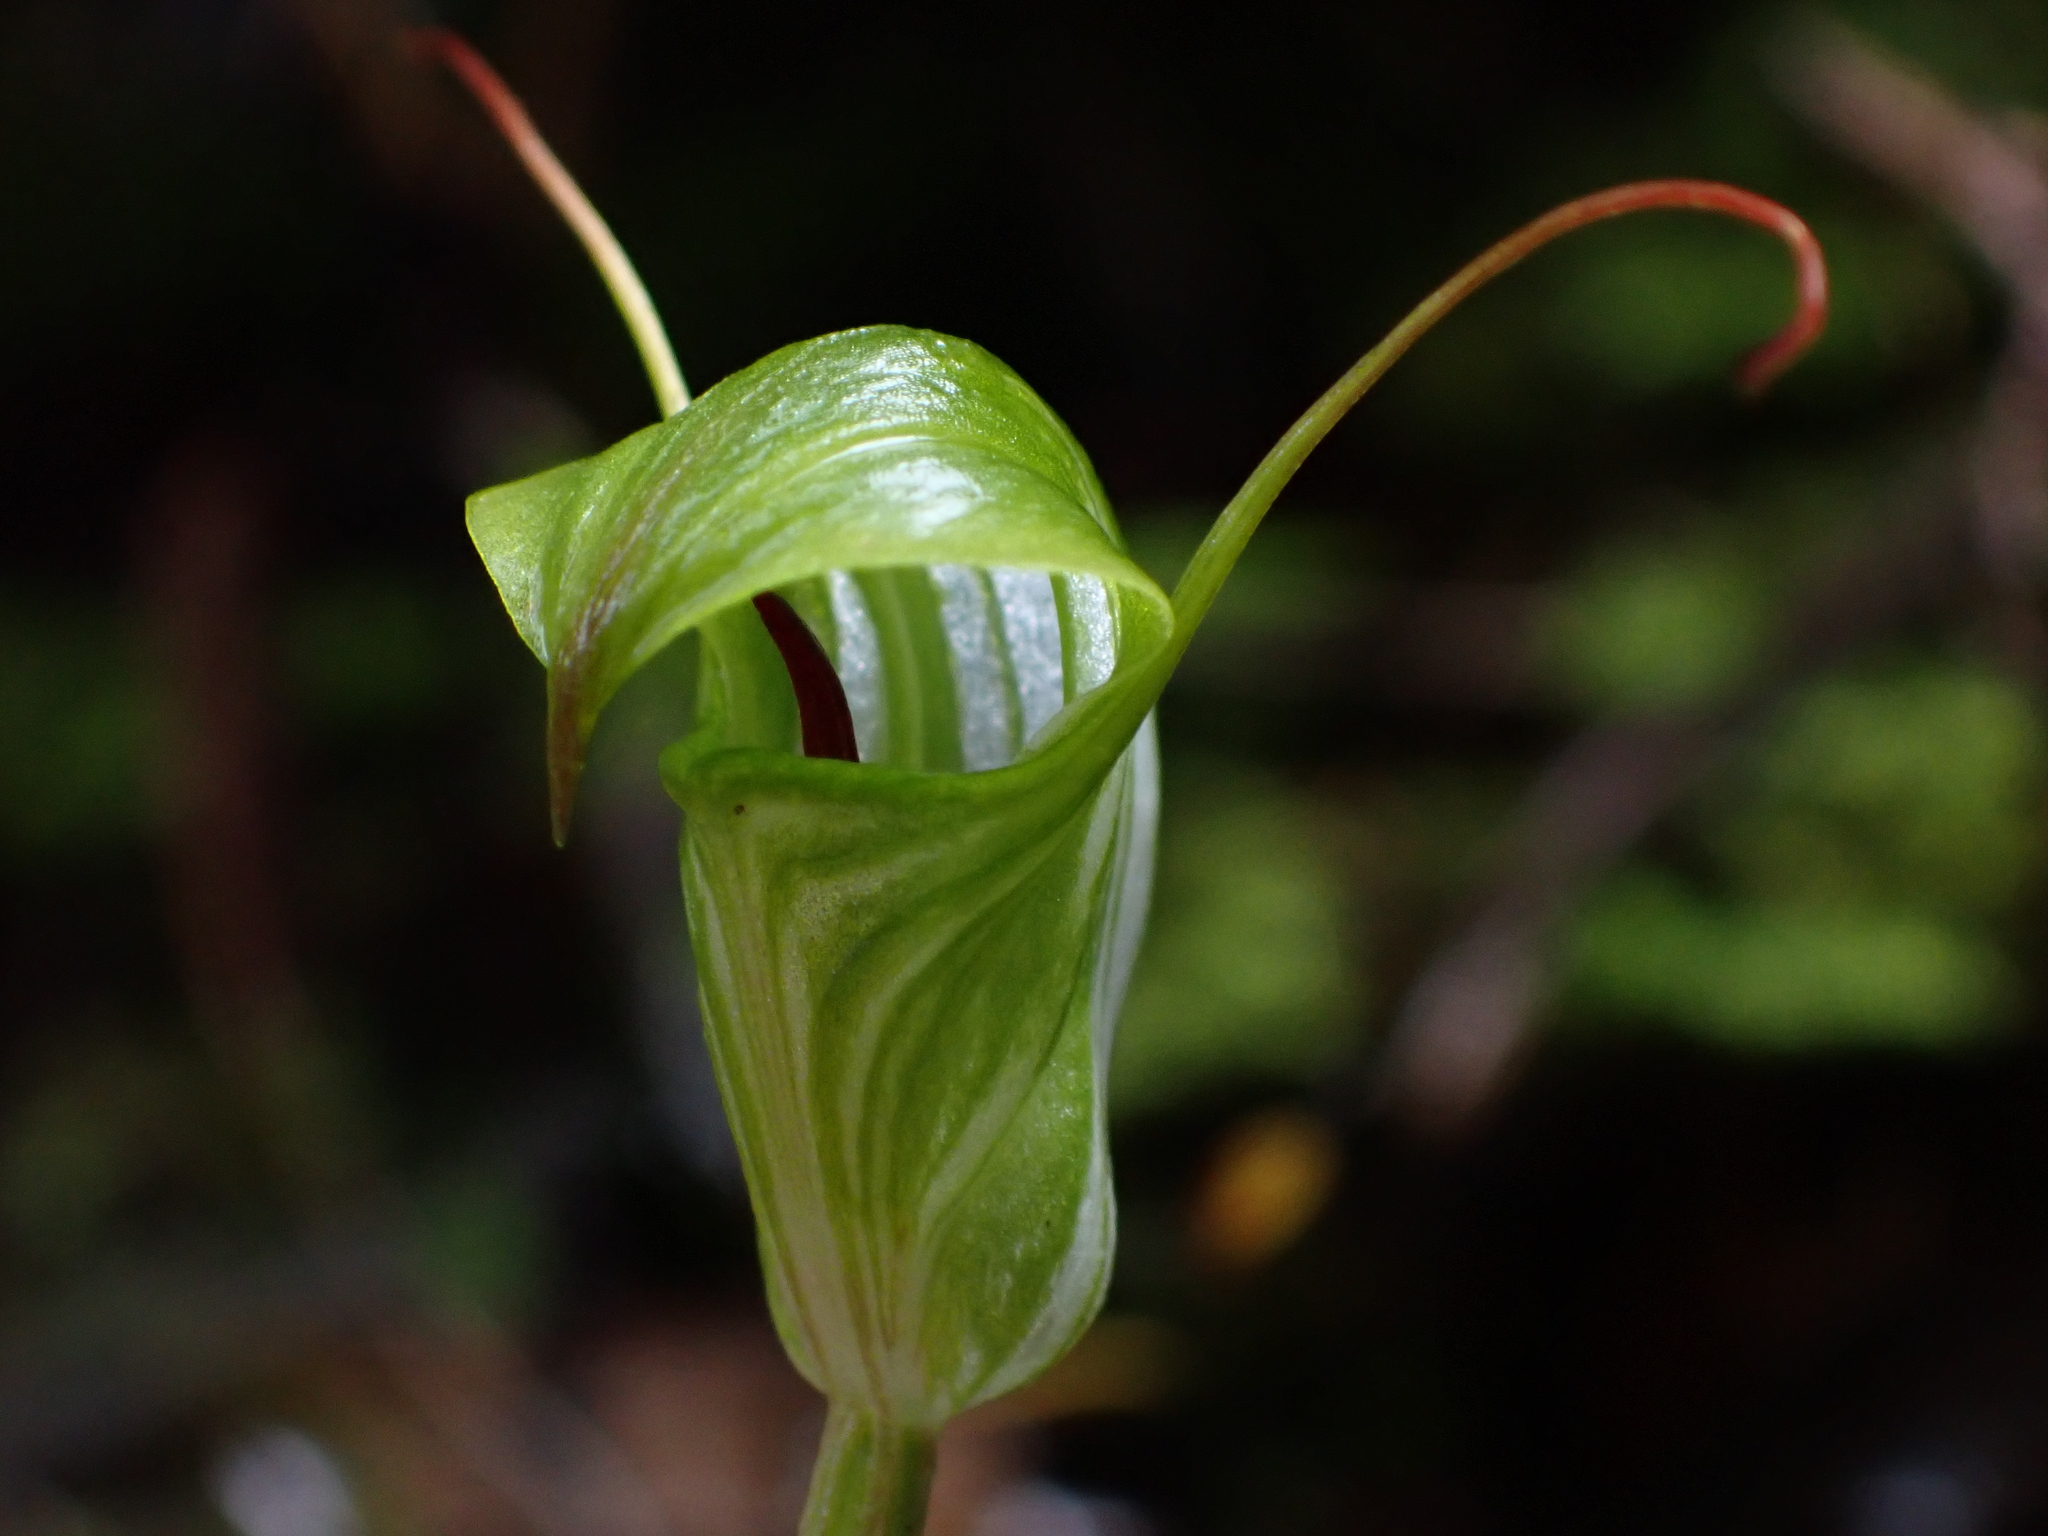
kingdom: Plantae
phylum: Tracheophyta
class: Liliopsida
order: Asparagales
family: Orchidaceae
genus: Pterostylis
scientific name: Pterostylis brumalis
